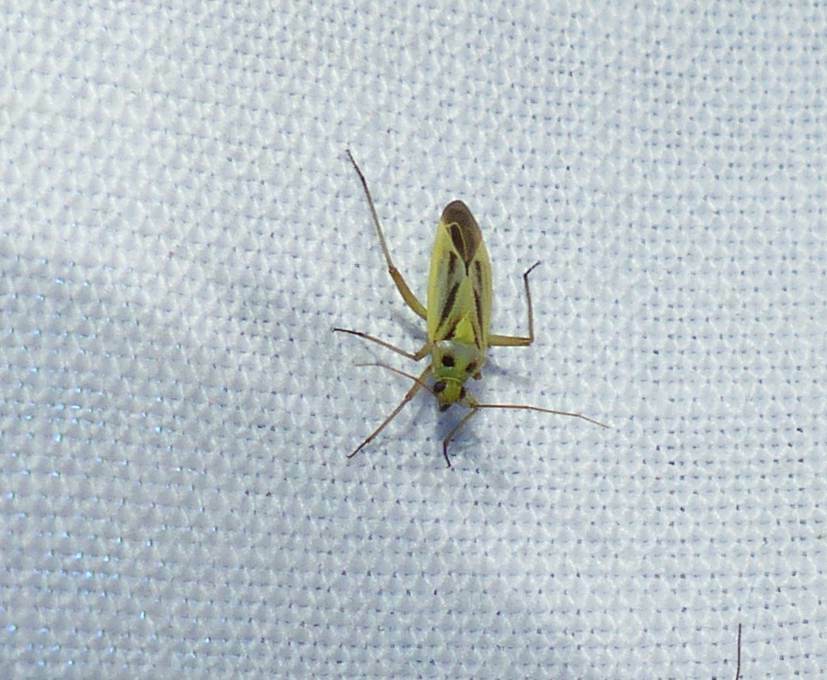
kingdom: Animalia
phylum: Arthropoda
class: Insecta
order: Hemiptera
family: Miridae
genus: Stenotus
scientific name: Stenotus binotatus
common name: Plant bug
